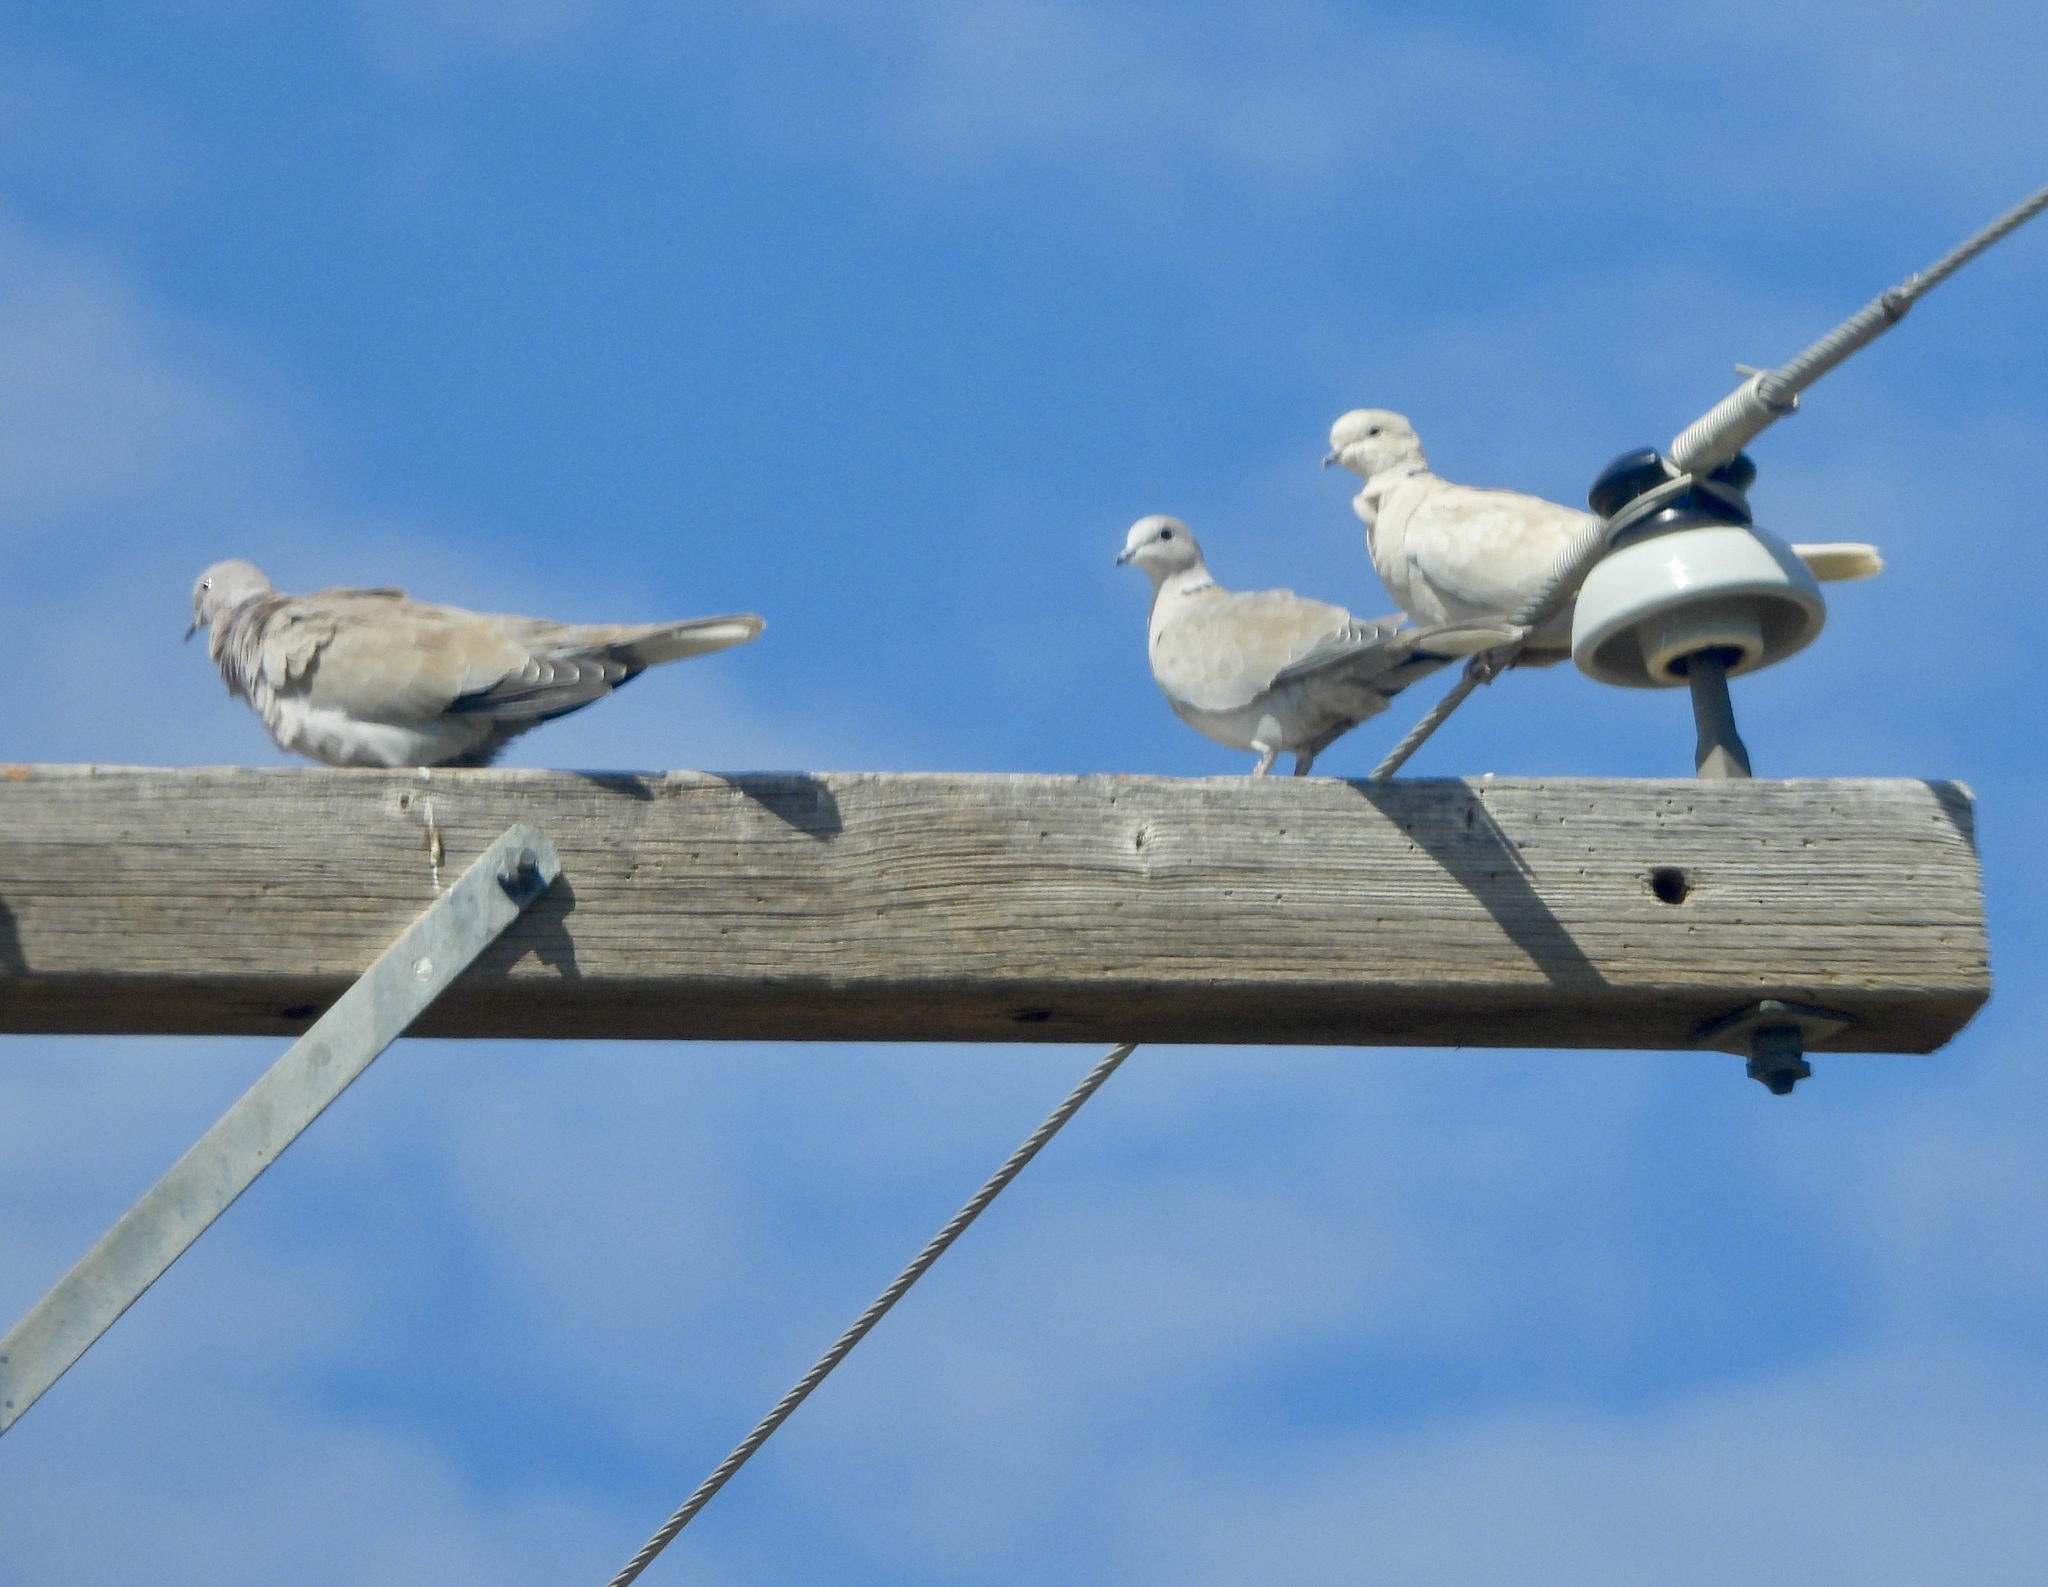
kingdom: Animalia
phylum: Chordata
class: Aves
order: Columbiformes
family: Columbidae
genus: Streptopelia
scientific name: Streptopelia decaocto
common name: Eurasian collared dove
